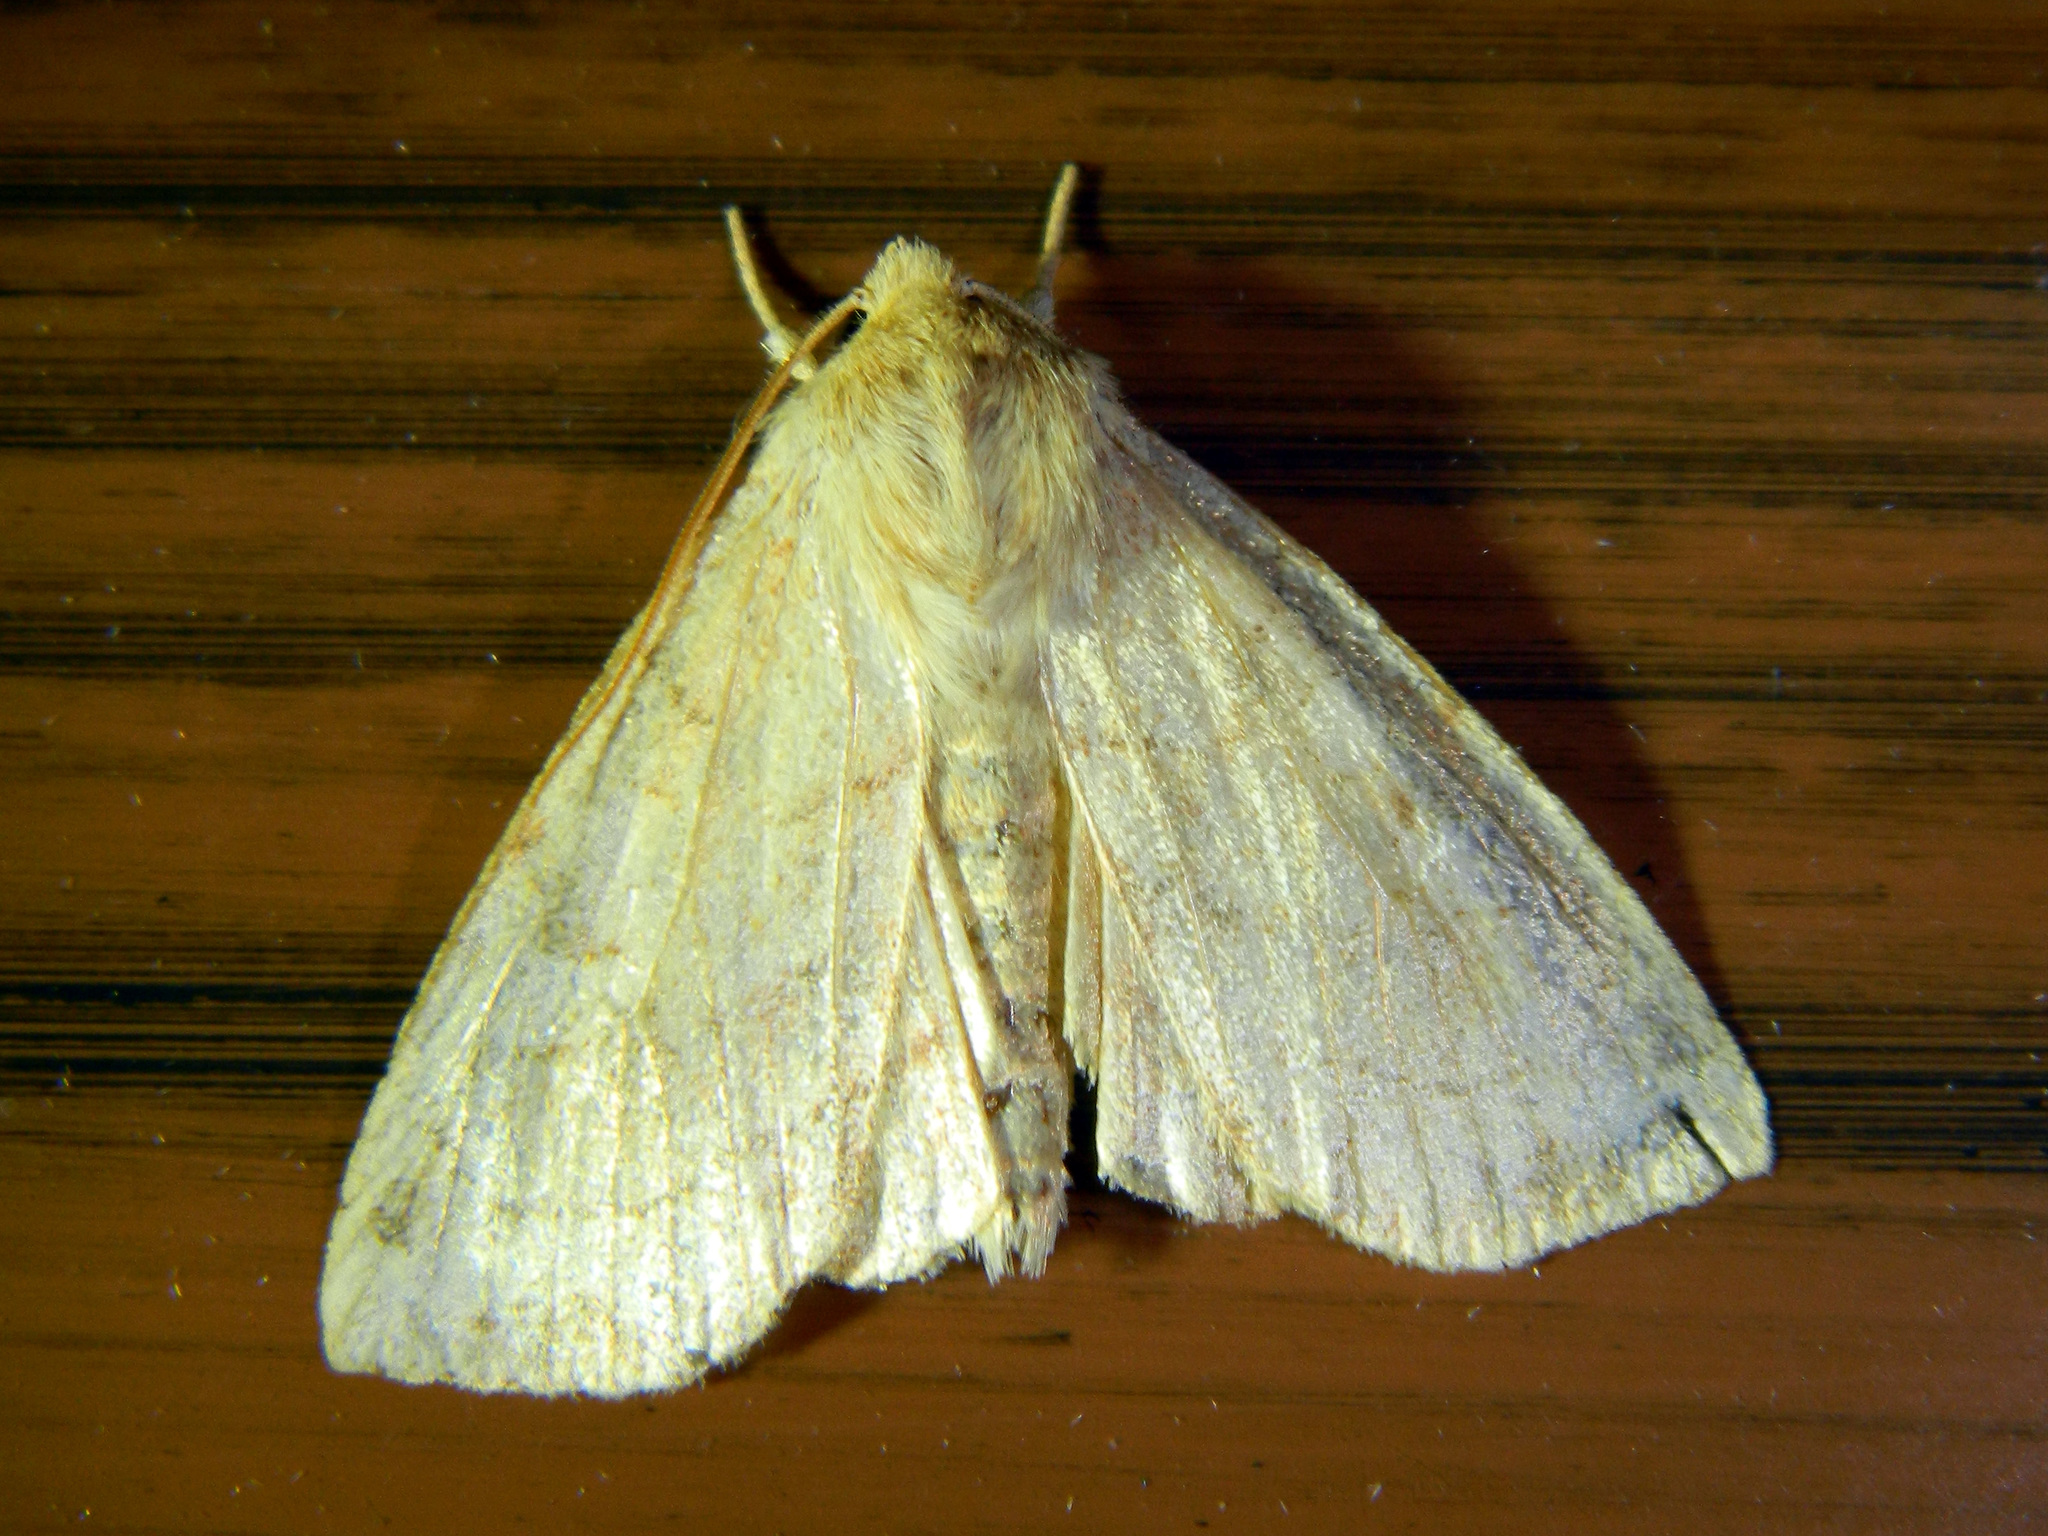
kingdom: Animalia
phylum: Arthropoda
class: Insecta
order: Lepidoptera
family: Noctuidae
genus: Enargia
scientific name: Enargia decolor
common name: Aspen twoleaf tier moth
